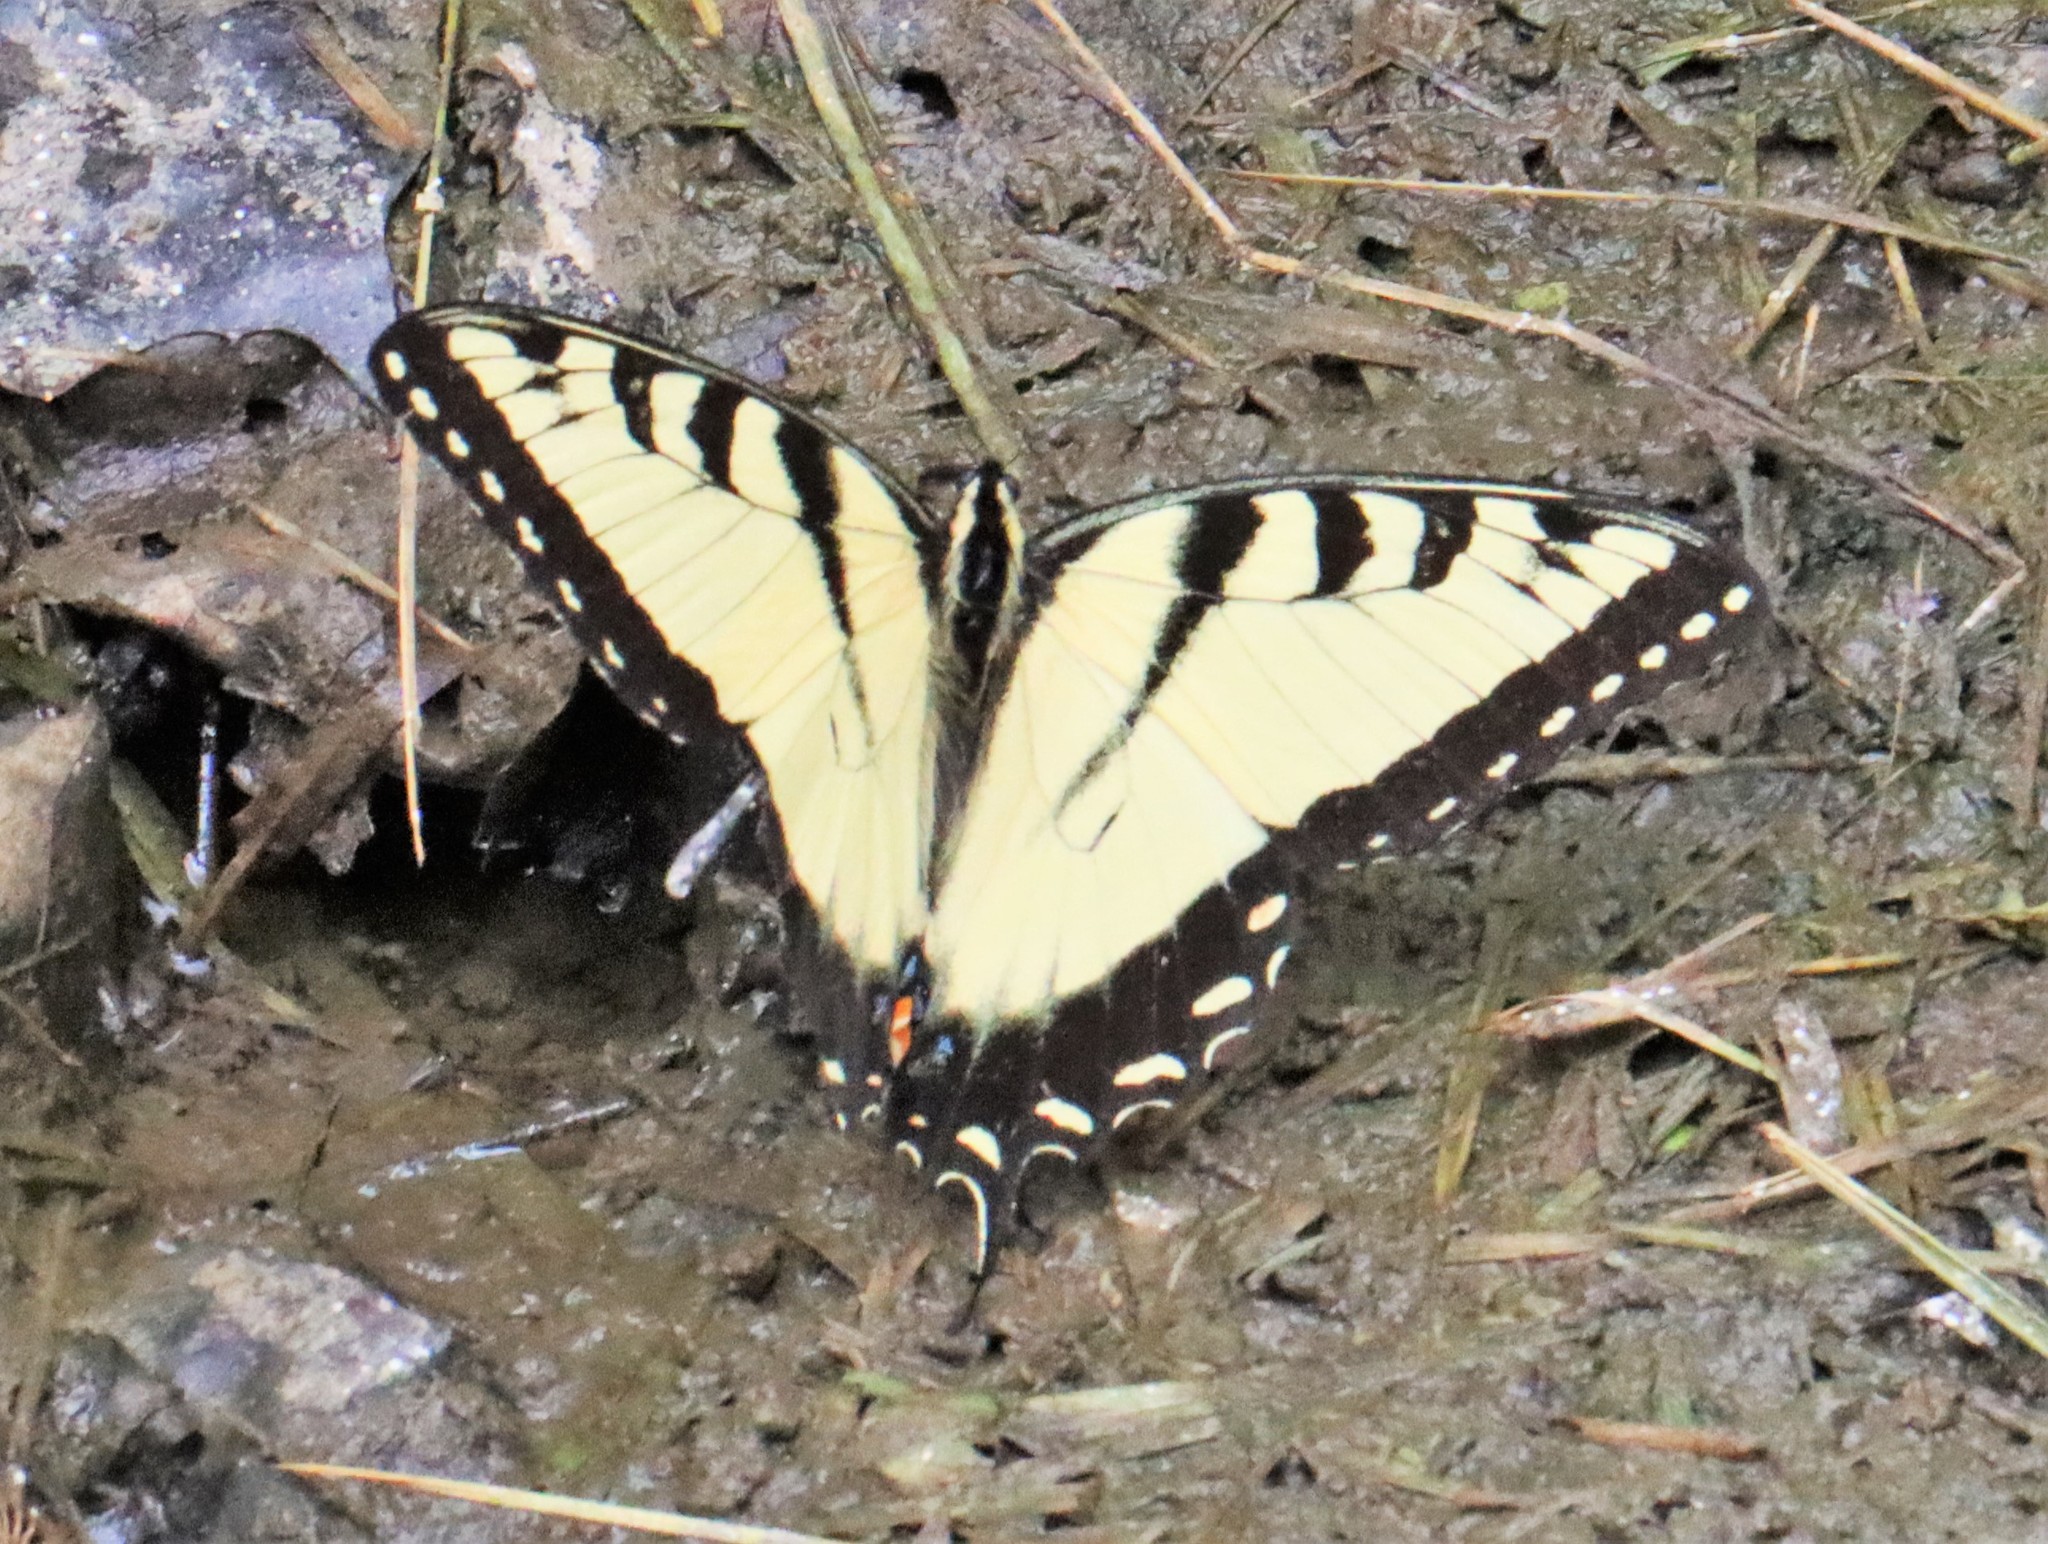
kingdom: Animalia
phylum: Arthropoda
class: Insecta
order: Lepidoptera
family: Papilionidae
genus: Papilio
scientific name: Papilio glaucus
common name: Tiger swallowtail
